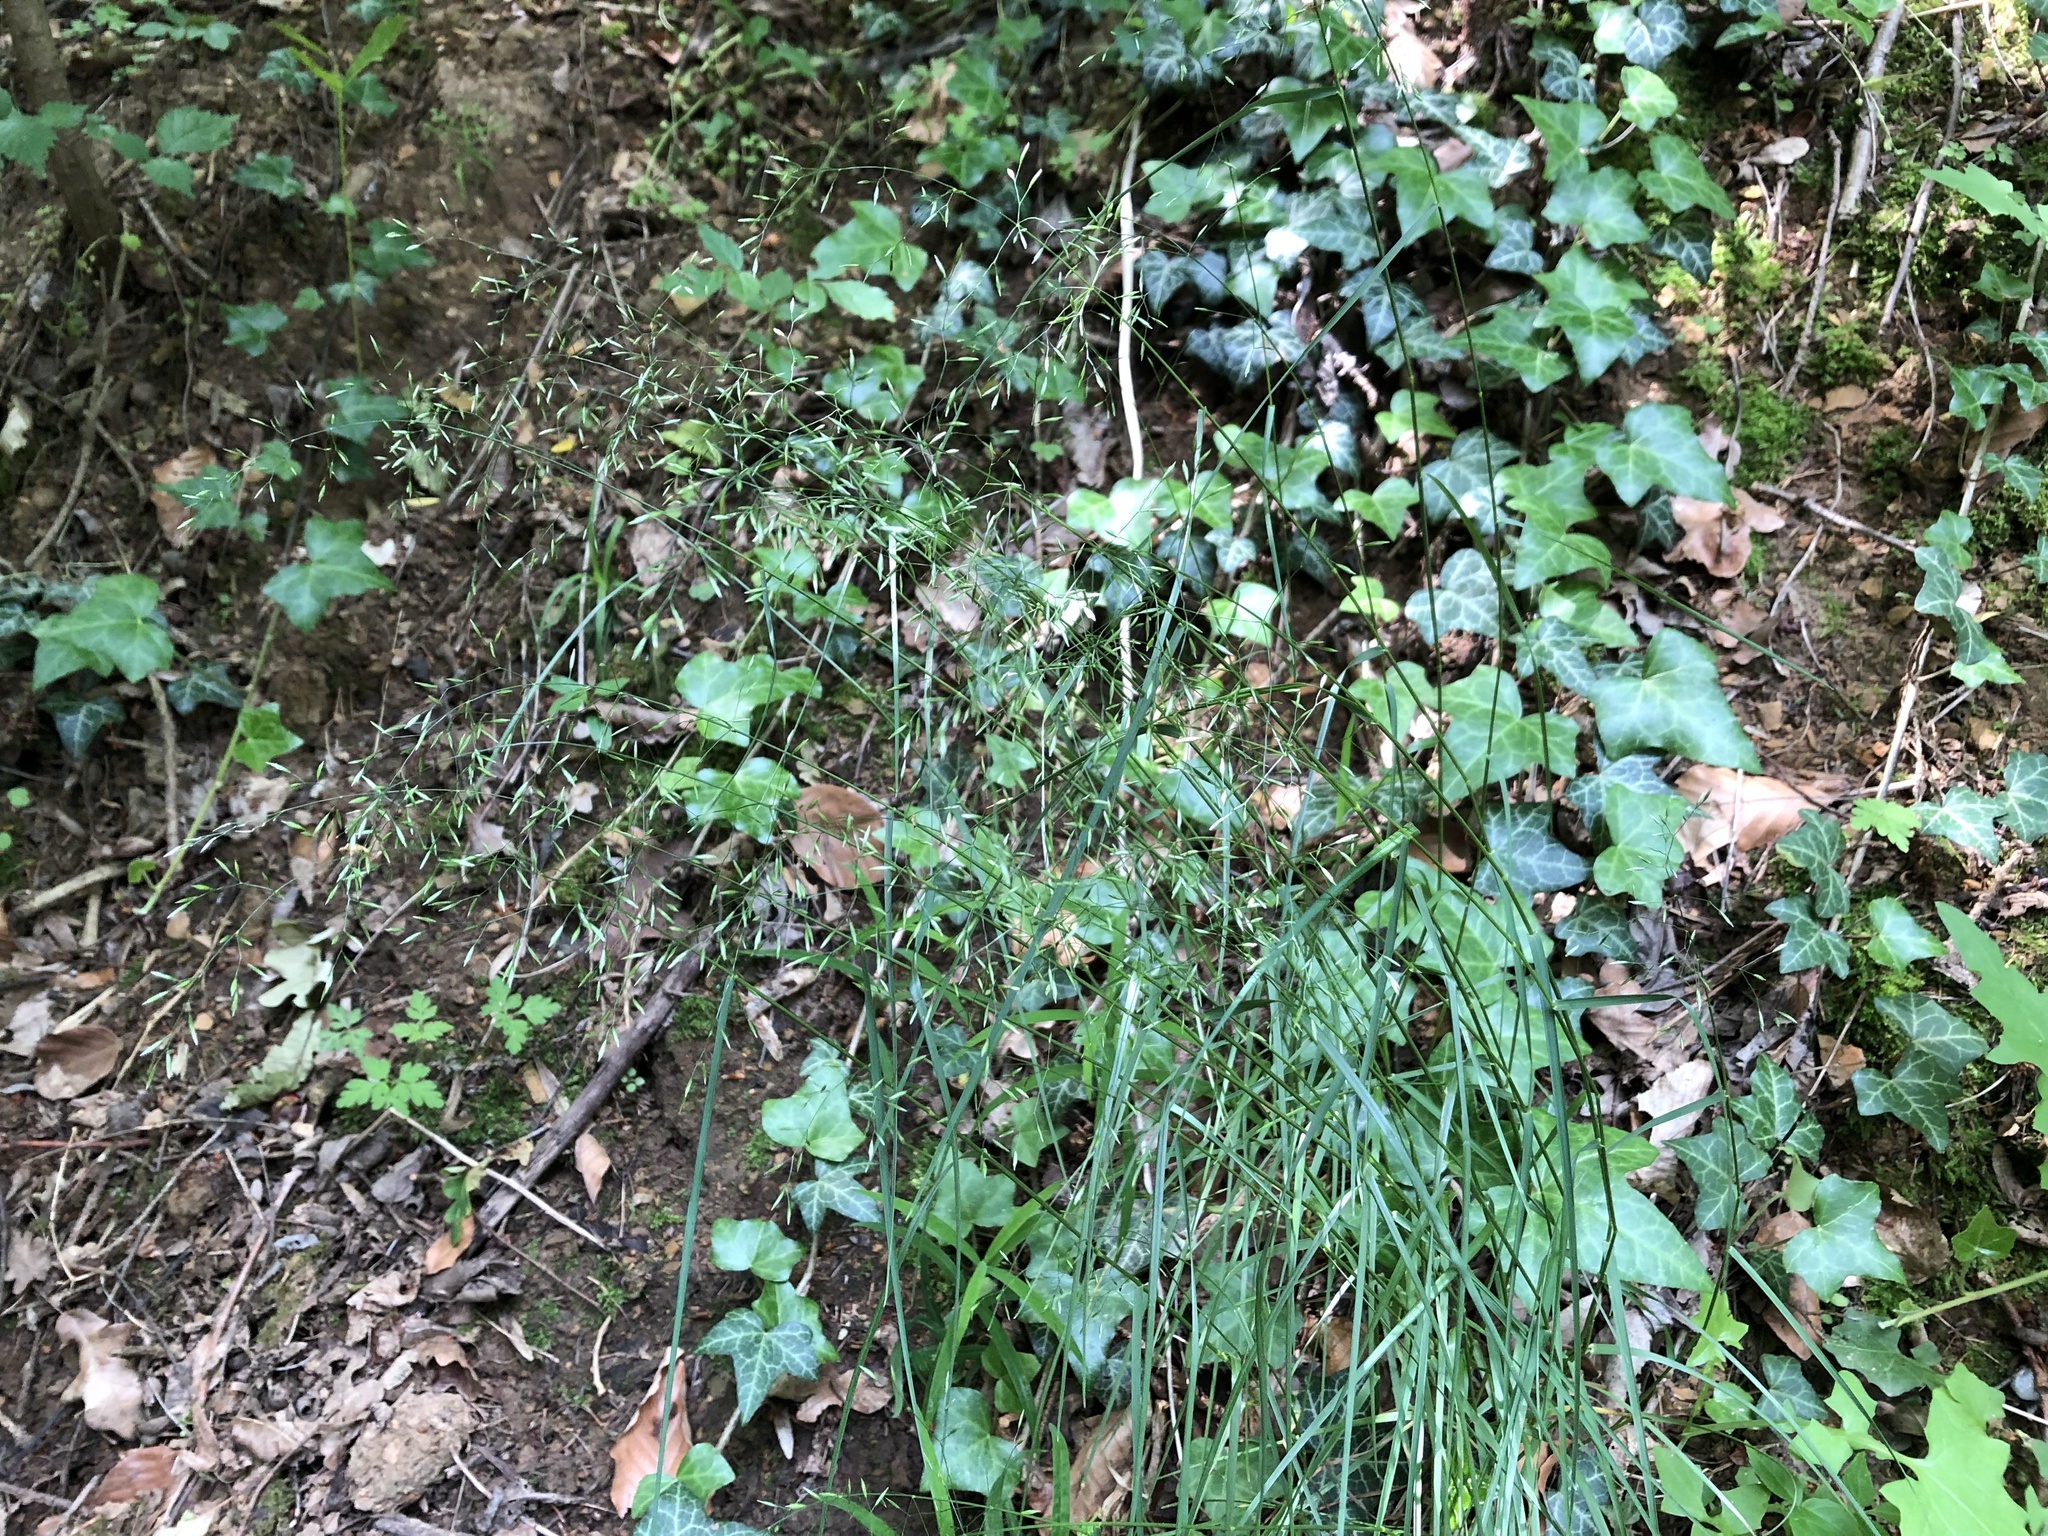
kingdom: Plantae
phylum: Tracheophyta
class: Liliopsida
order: Poales
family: Poaceae
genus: Poa
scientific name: Poa nemoralis
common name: Wood bluegrass
